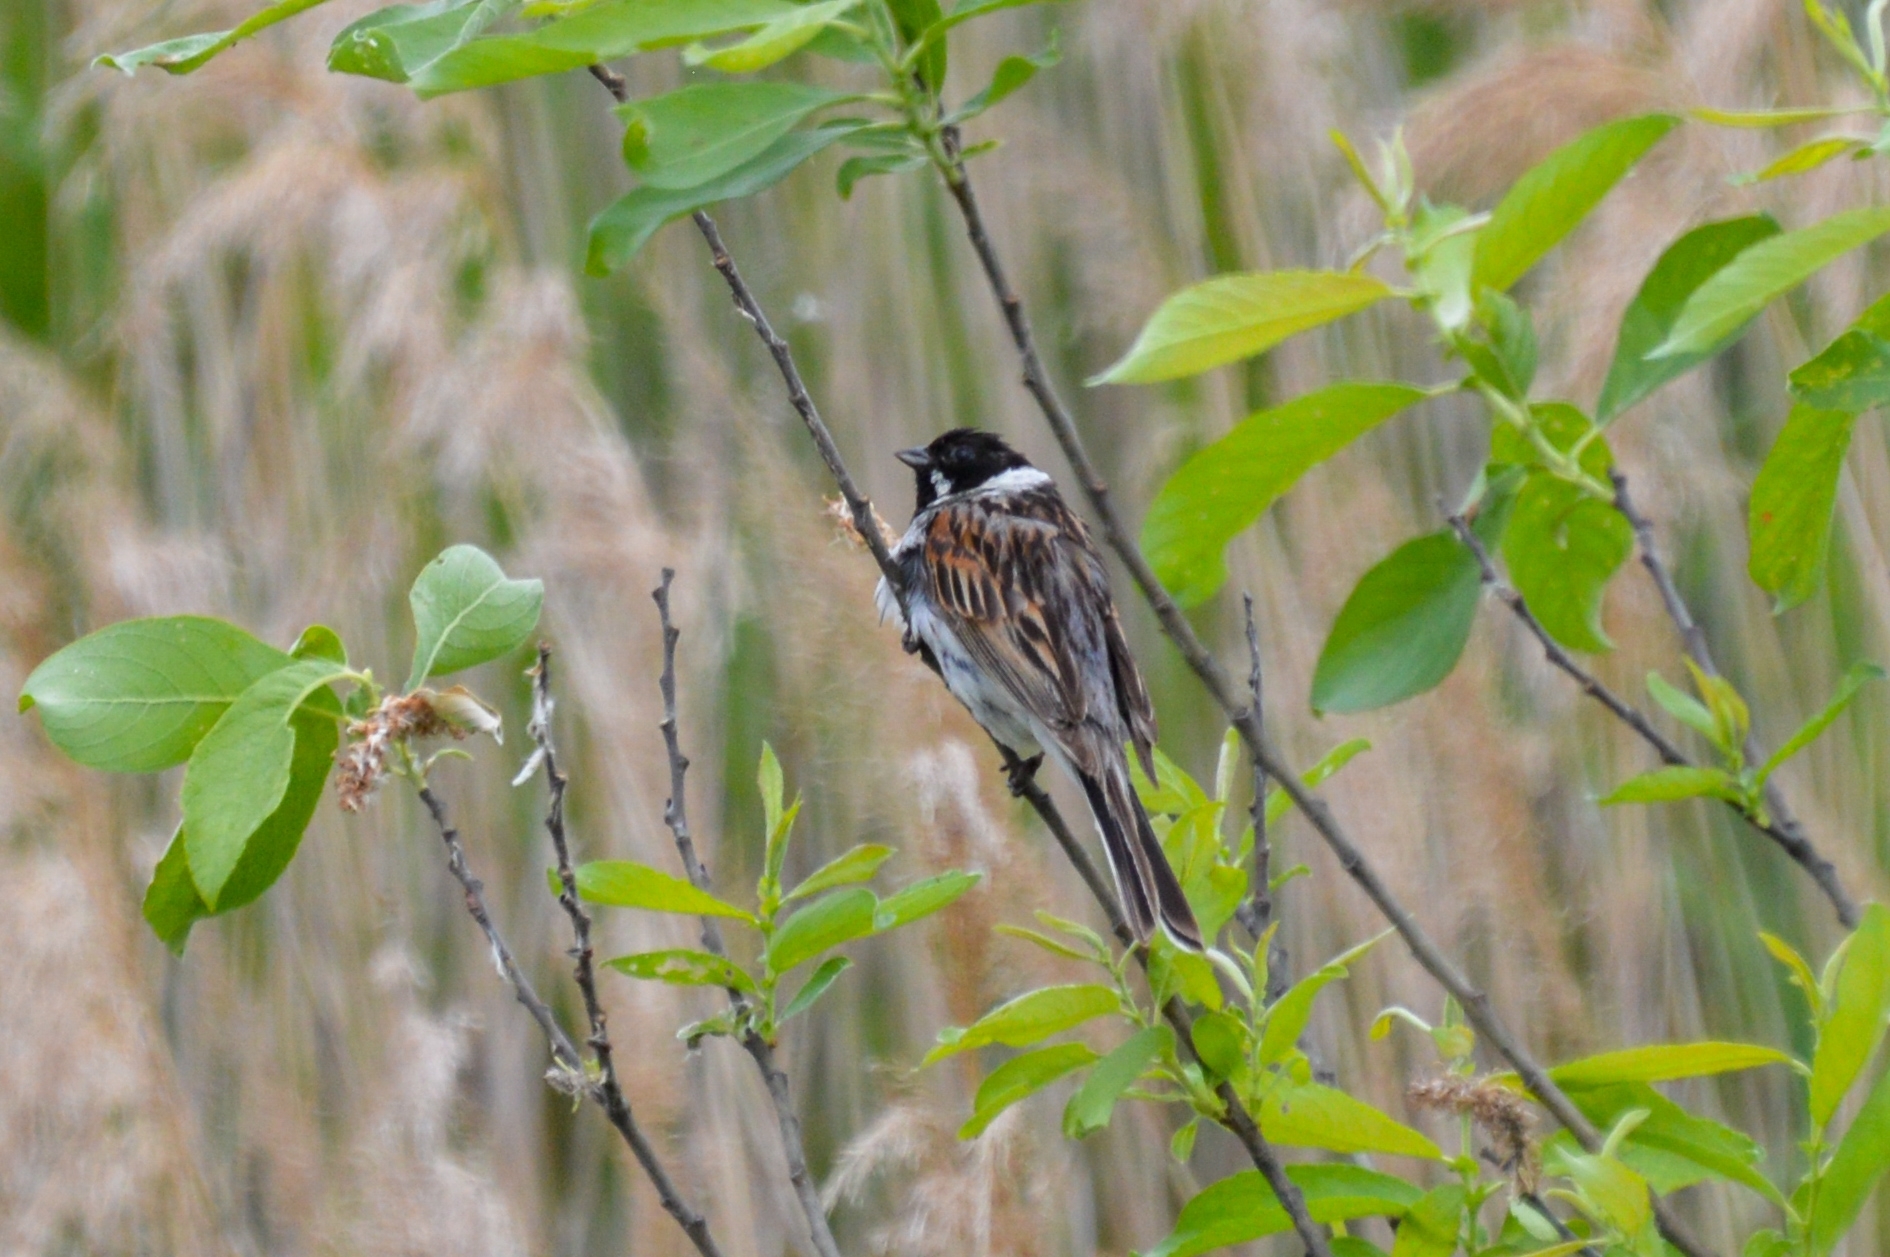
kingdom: Animalia
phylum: Chordata
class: Aves
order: Passeriformes
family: Emberizidae
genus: Emberiza
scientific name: Emberiza schoeniclus
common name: Reed bunting
